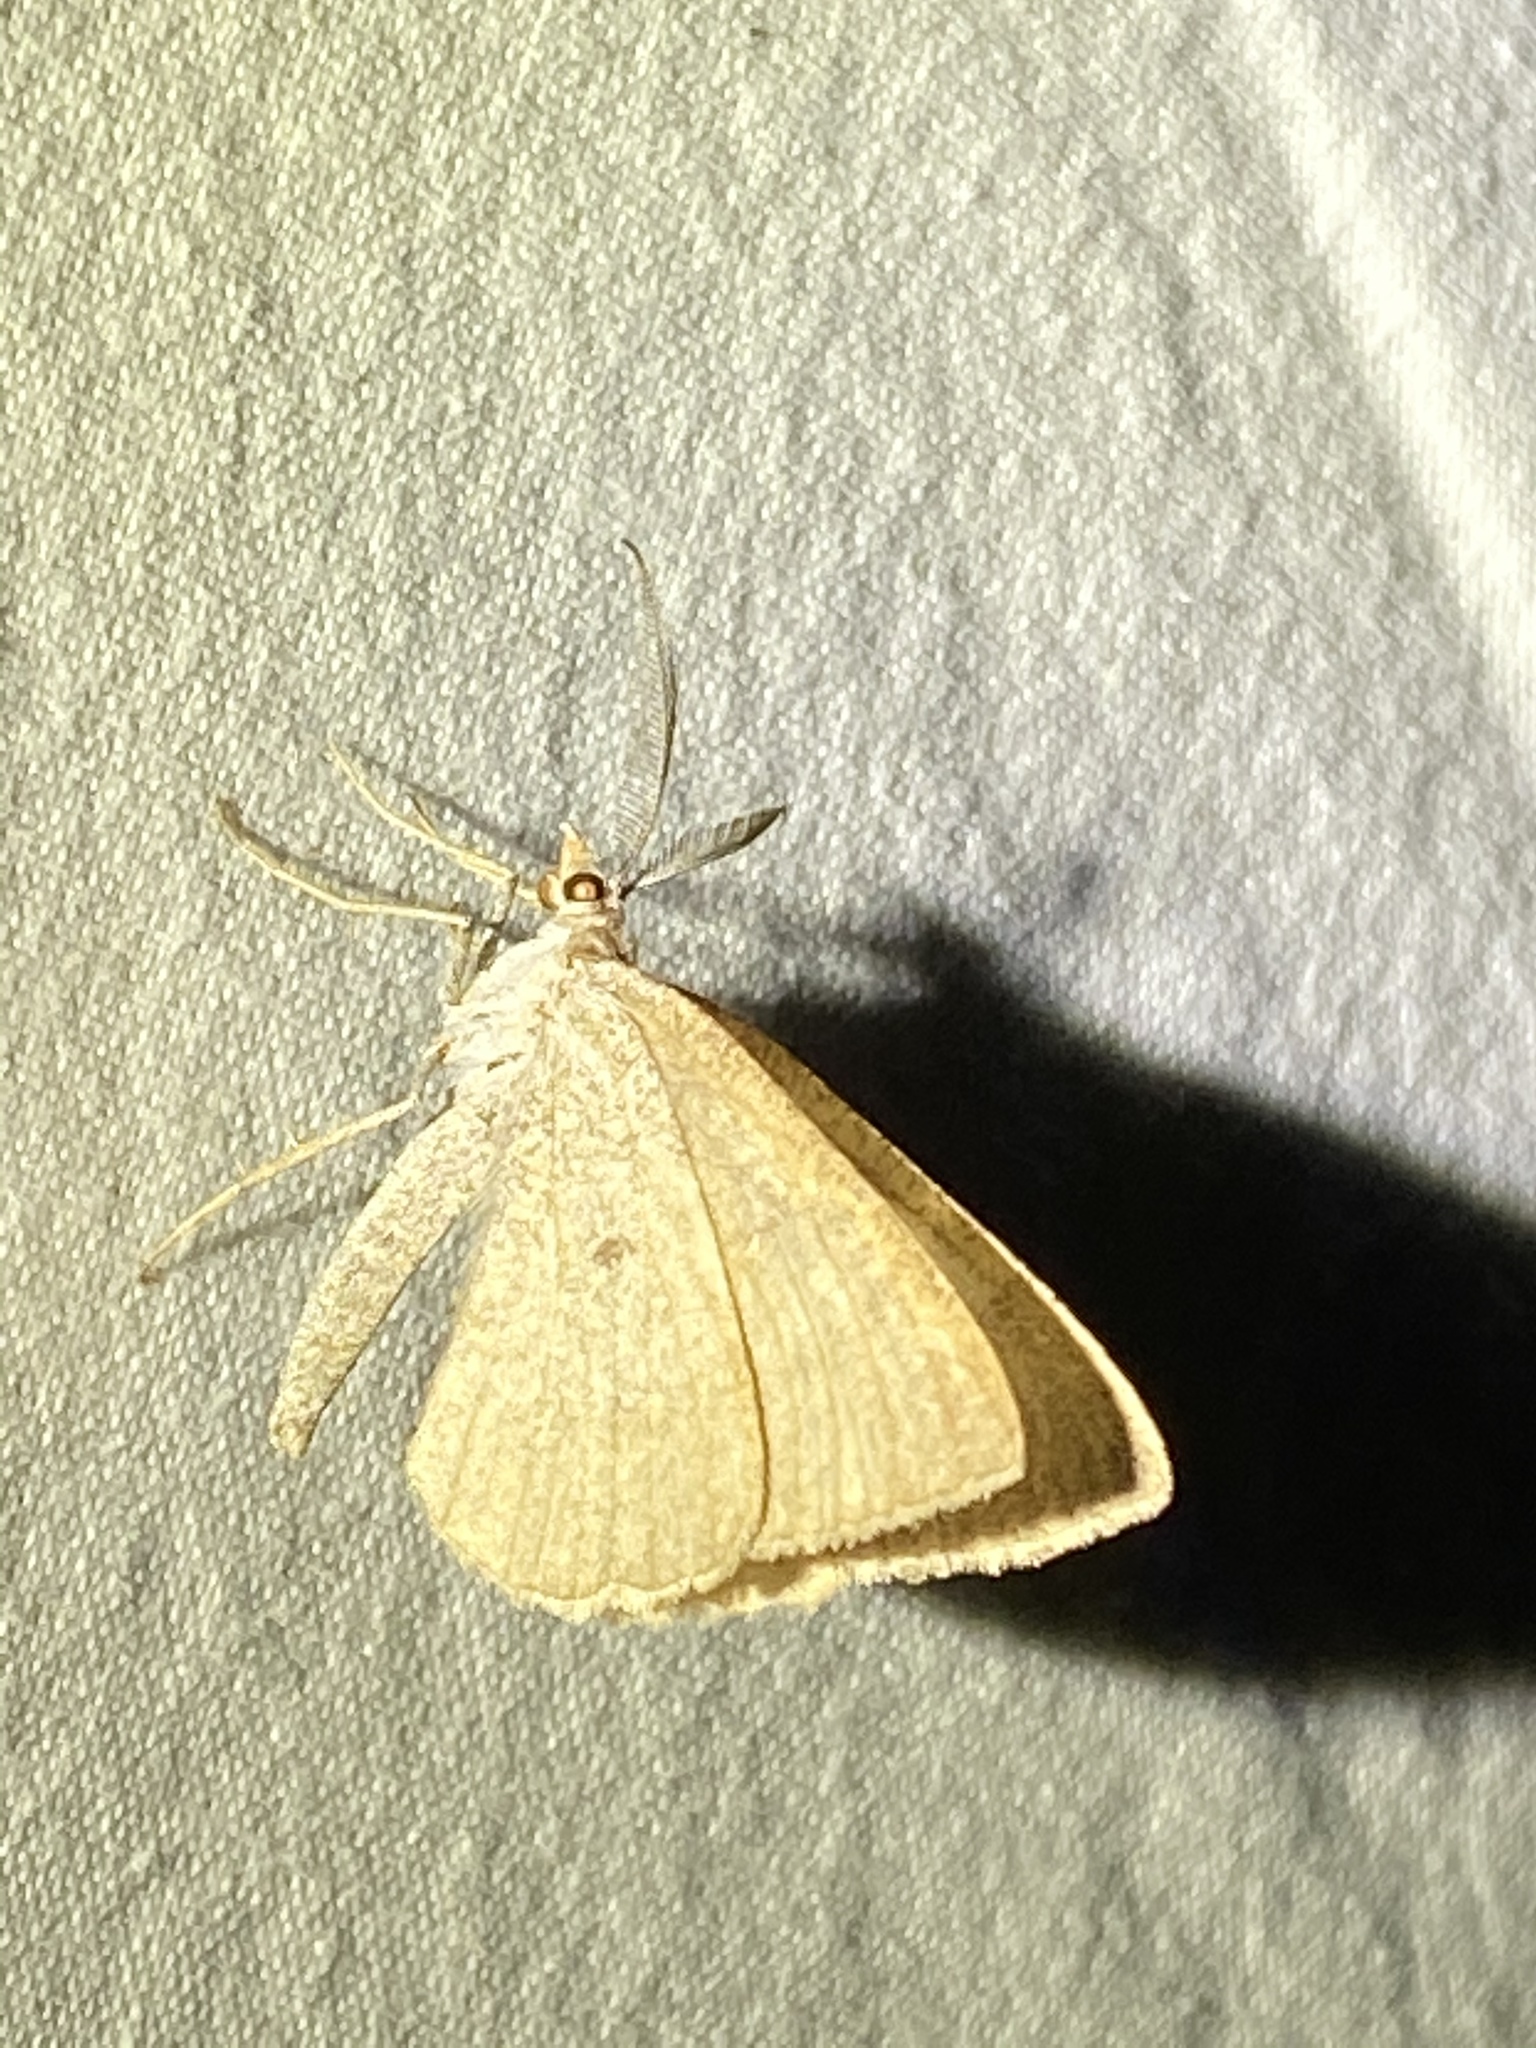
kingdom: Animalia
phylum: Arthropoda
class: Insecta
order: Lepidoptera
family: Geometridae
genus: Sericosema
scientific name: Sericosema juturnaria
